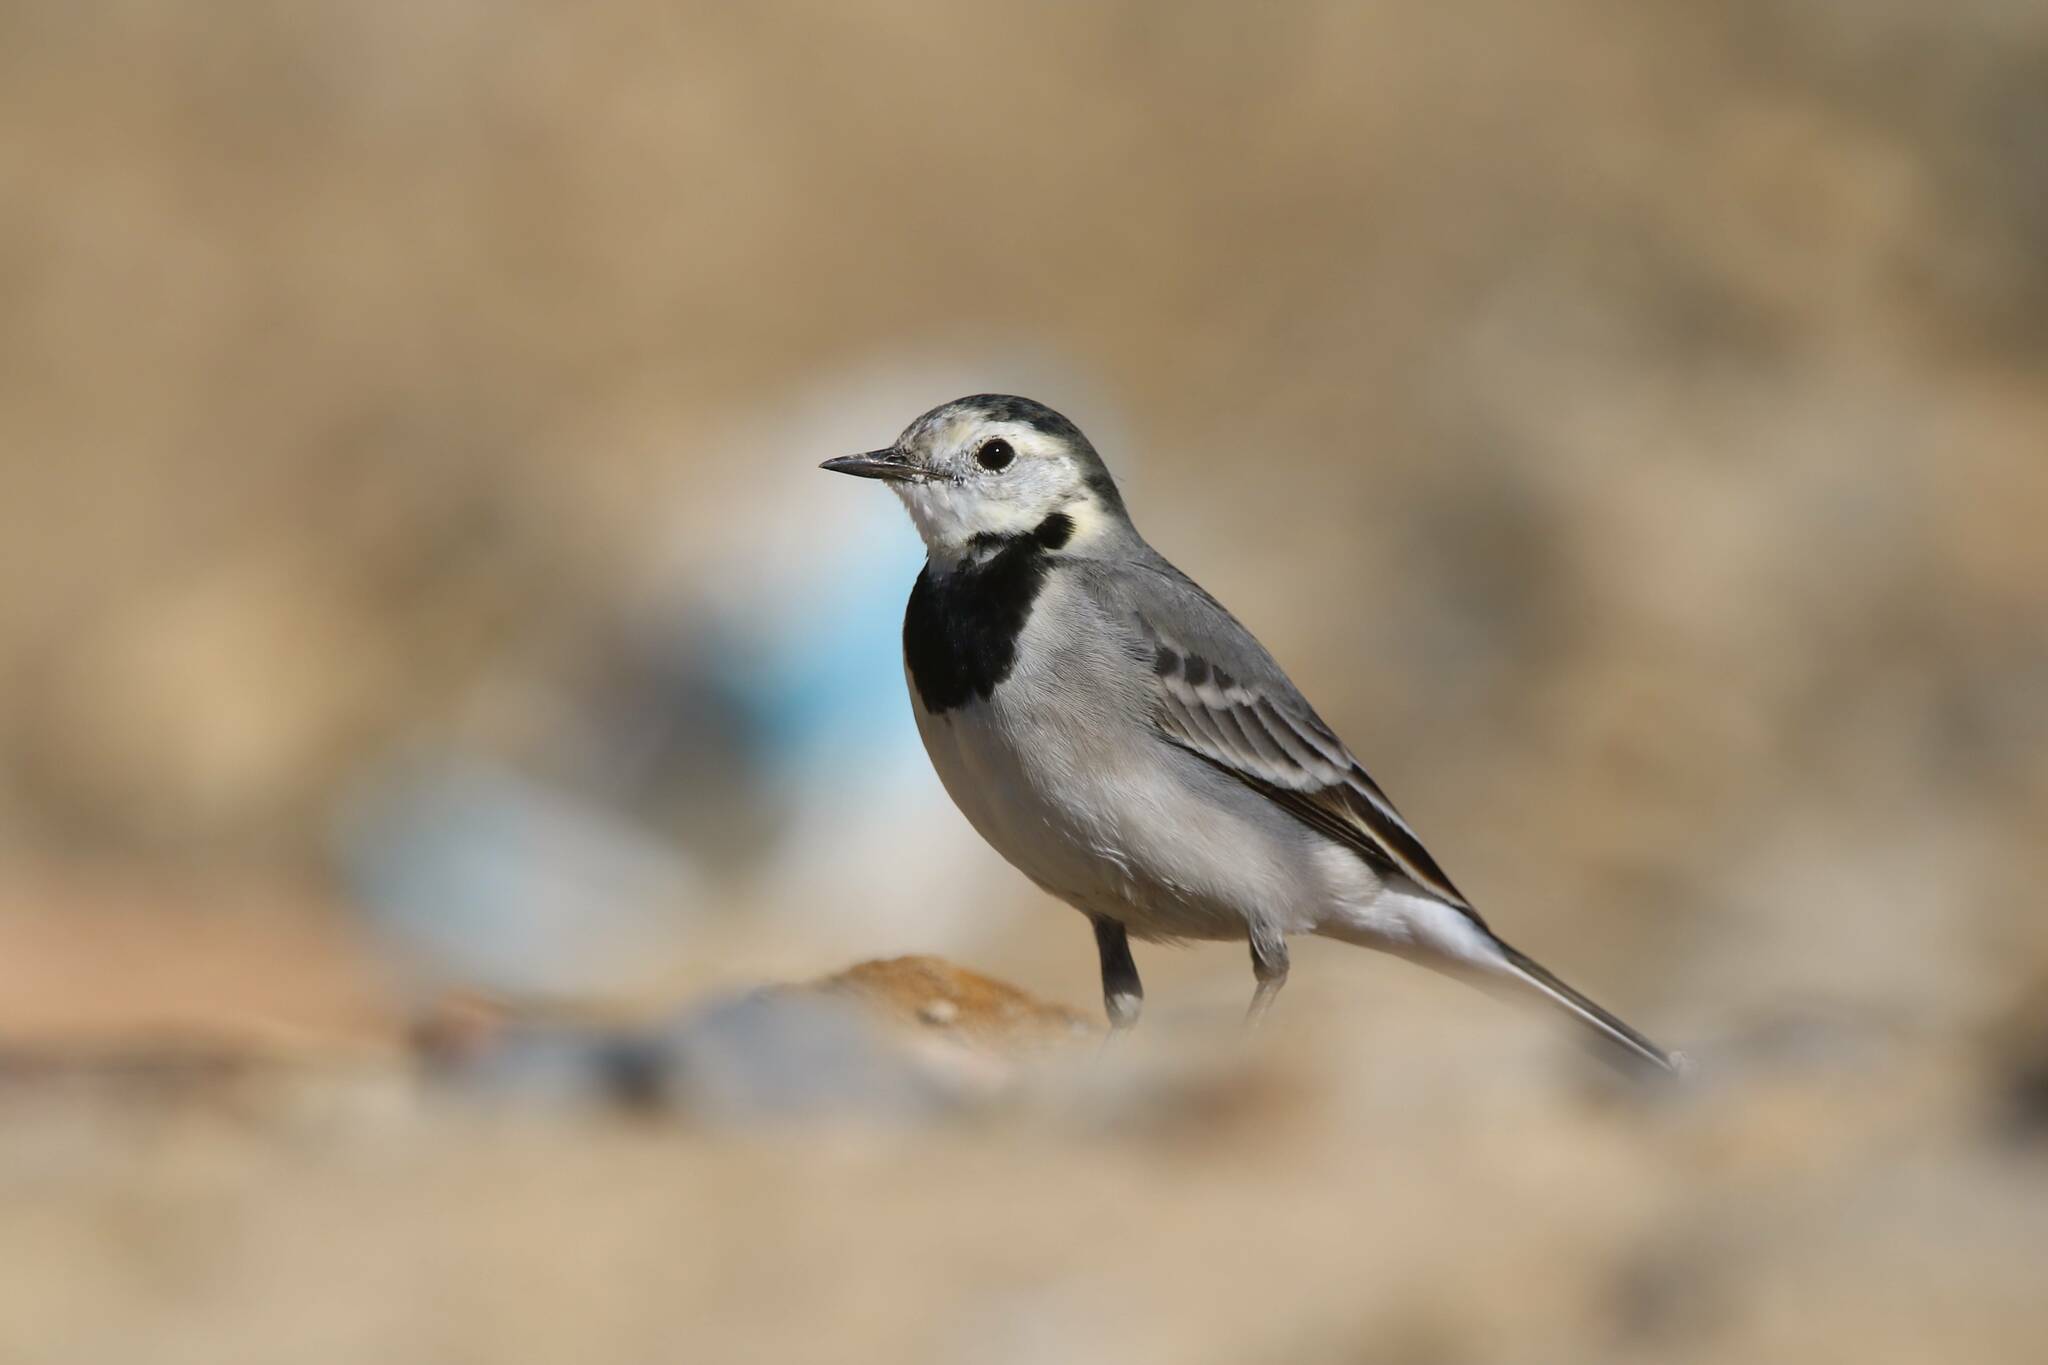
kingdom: Animalia
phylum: Chordata
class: Aves
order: Passeriformes
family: Motacillidae
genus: Motacilla
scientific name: Motacilla alba
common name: White wagtail
